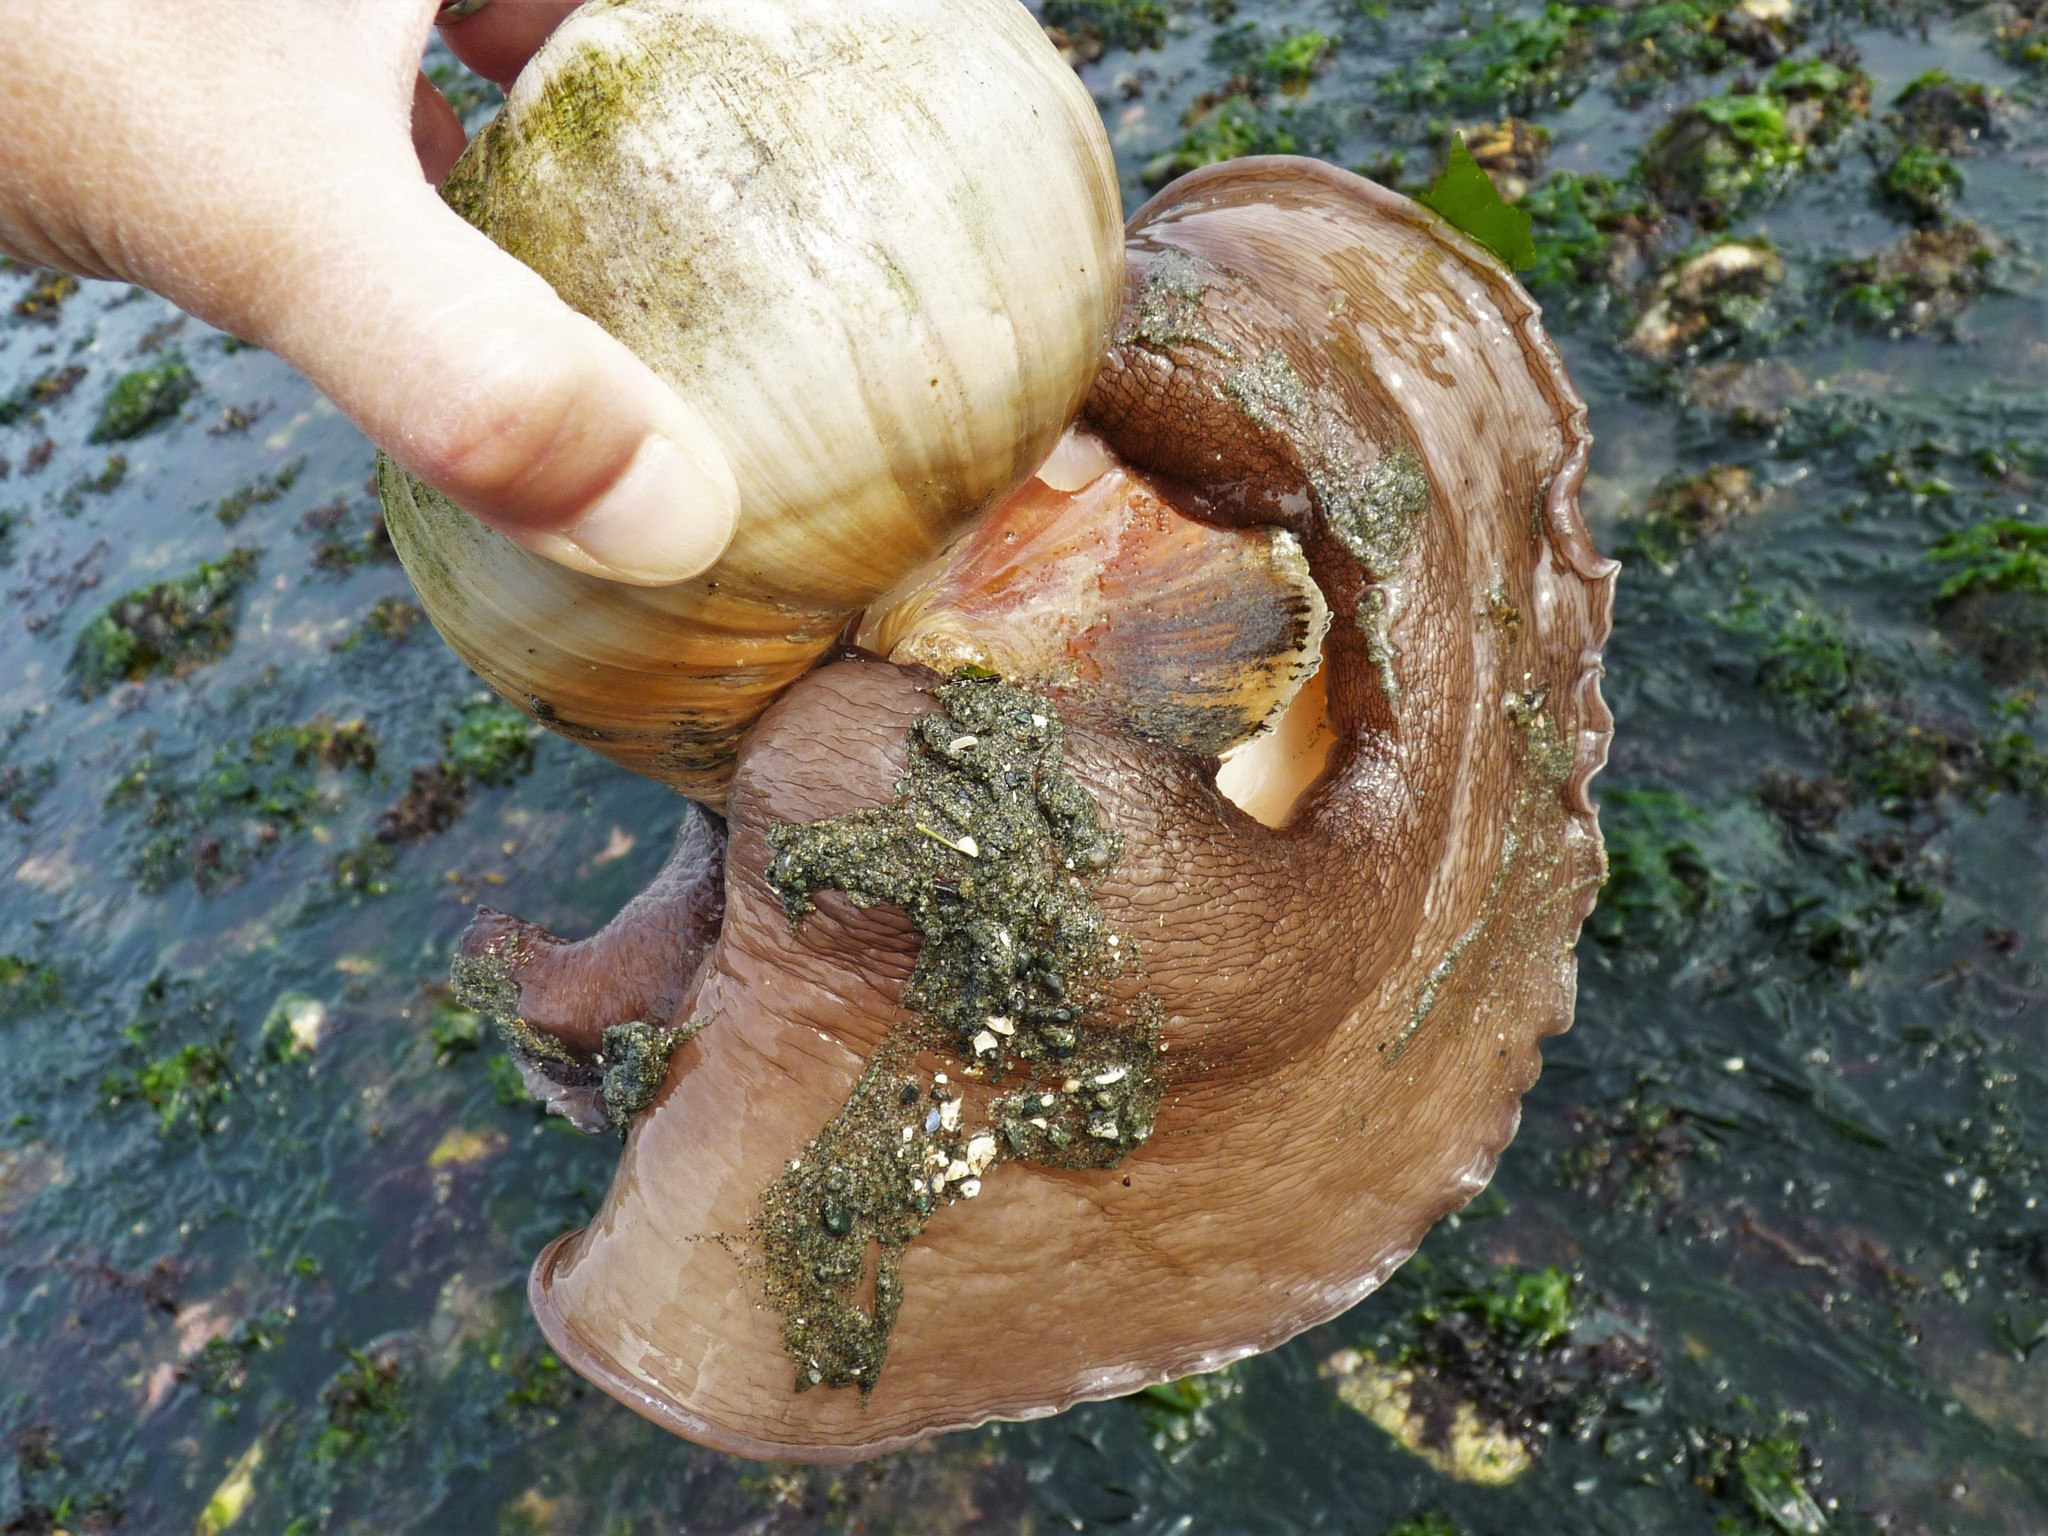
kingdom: Animalia
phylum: Mollusca
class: Gastropoda
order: Littorinimorpha
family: Naticidae
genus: Neverita
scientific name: Neverita lewisii
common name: Lewis' moonsnail
